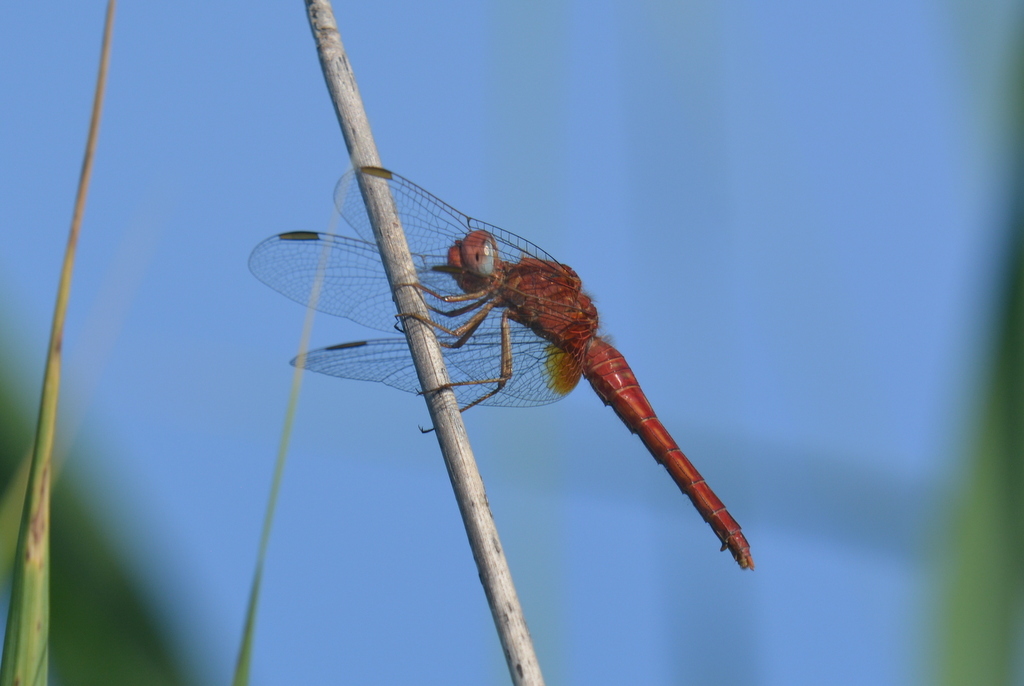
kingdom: Animalia
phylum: Arthropoda
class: Insecta
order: Odonata
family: Libellulidae
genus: Crocothemis
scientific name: Crocothemis erythraea
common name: Scarlet dragonfly
